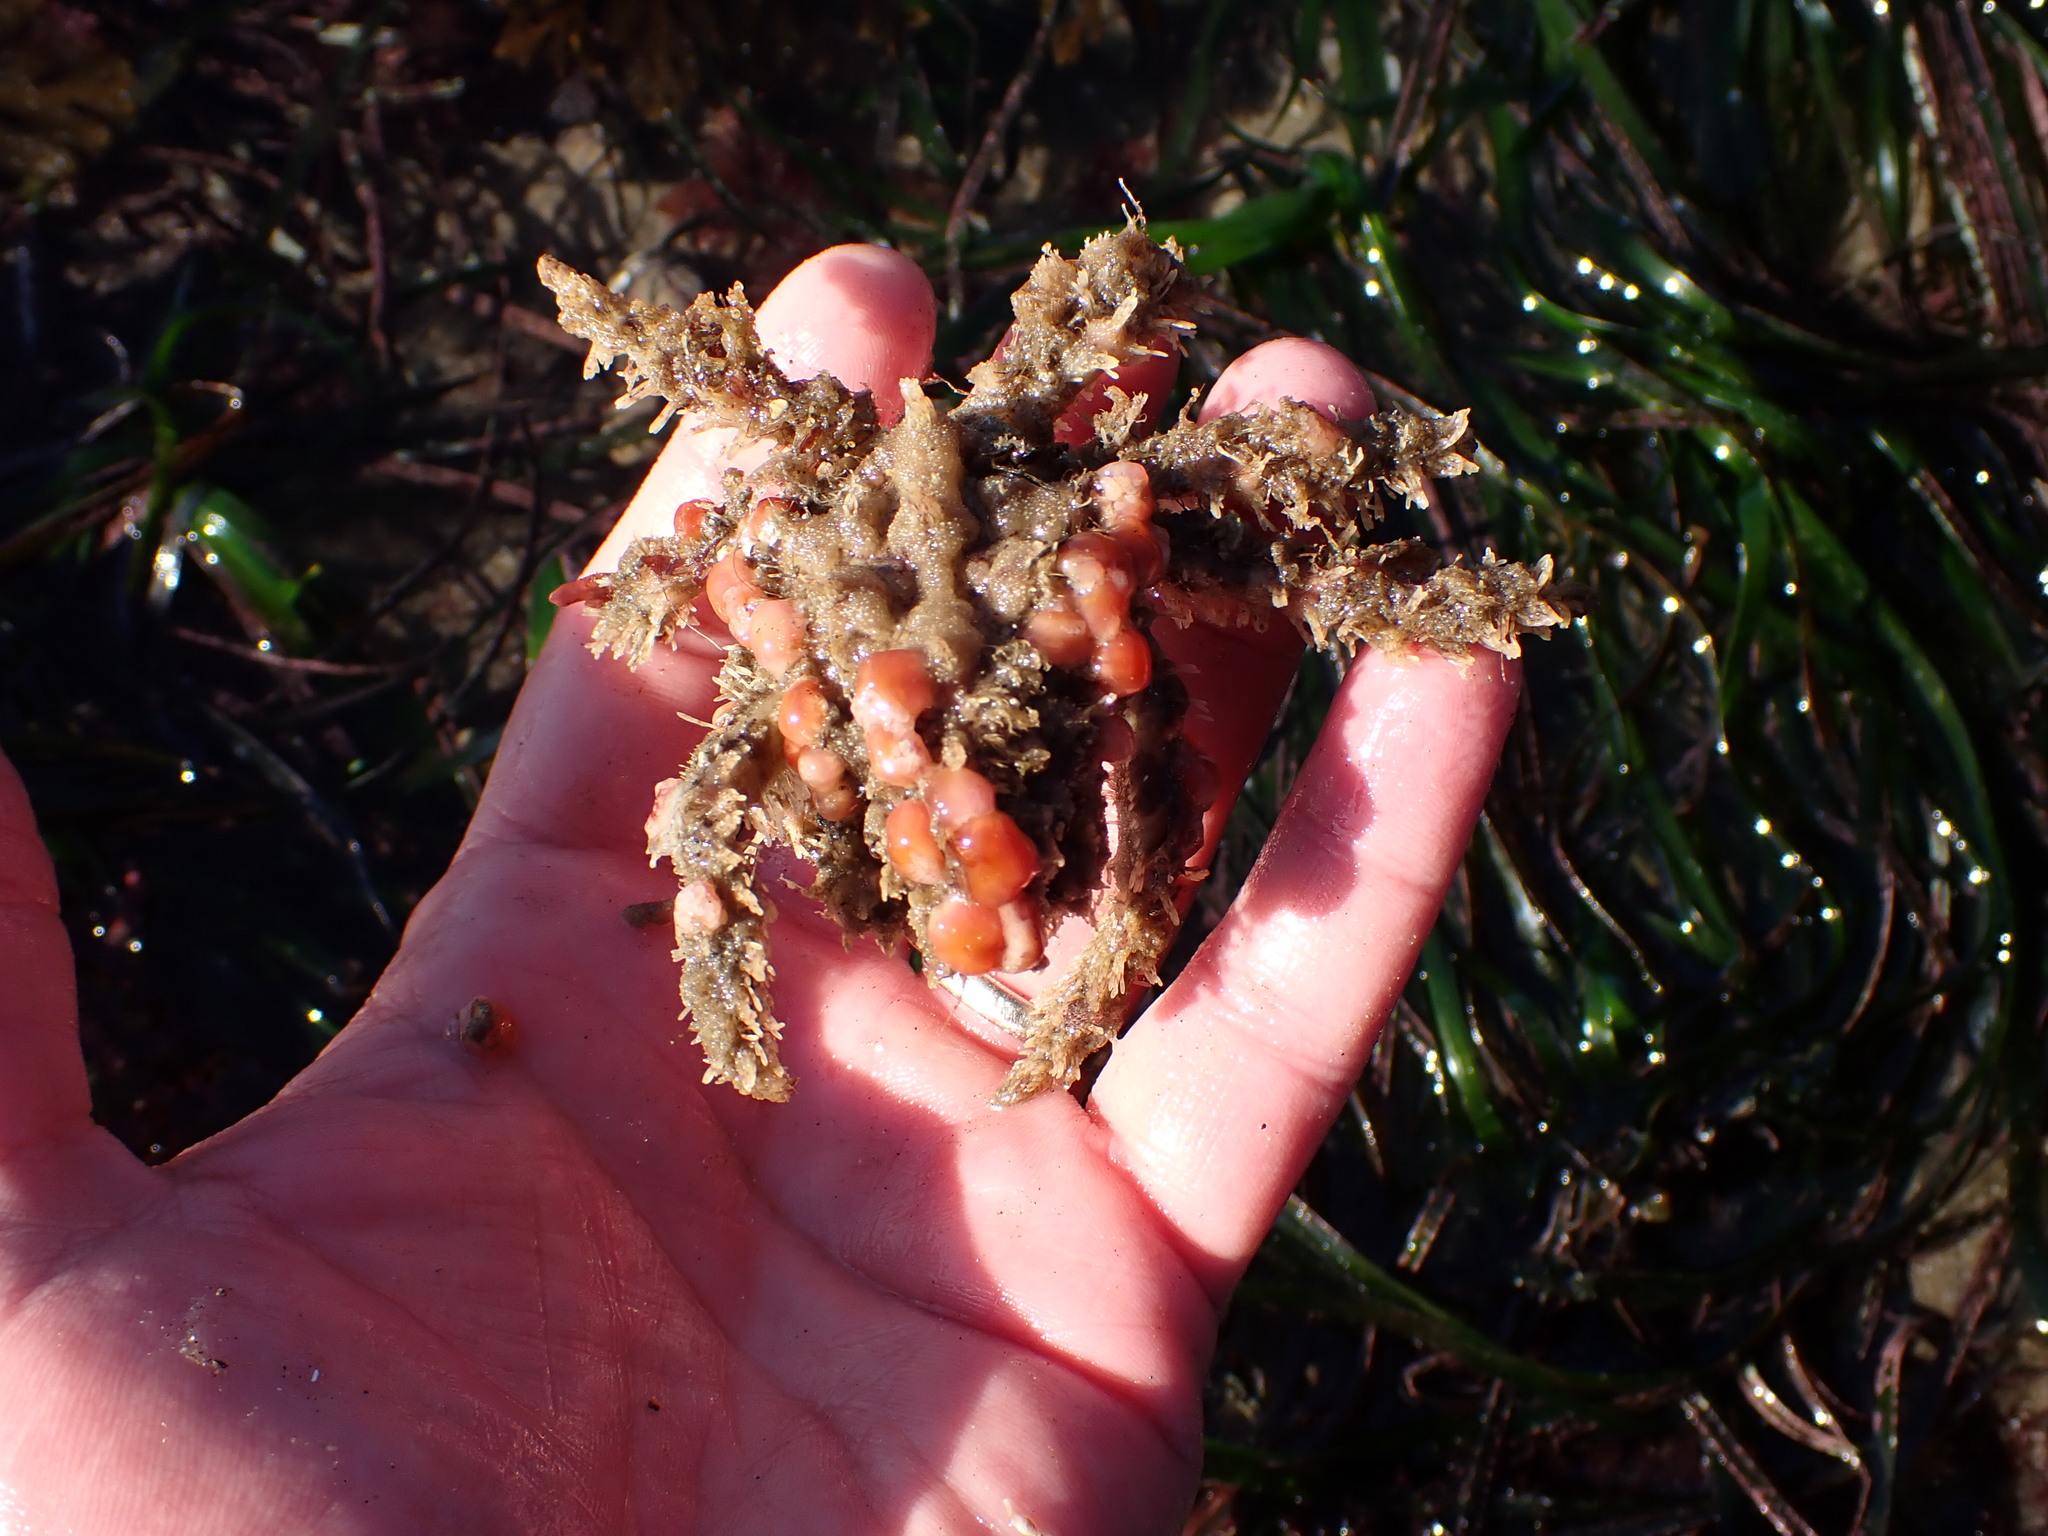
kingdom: Animalia
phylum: Arthropoda
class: Malacostraca
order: Decapoda
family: Epialtidae
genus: Loxorhynchus
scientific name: Loxorhynchus crispatus
